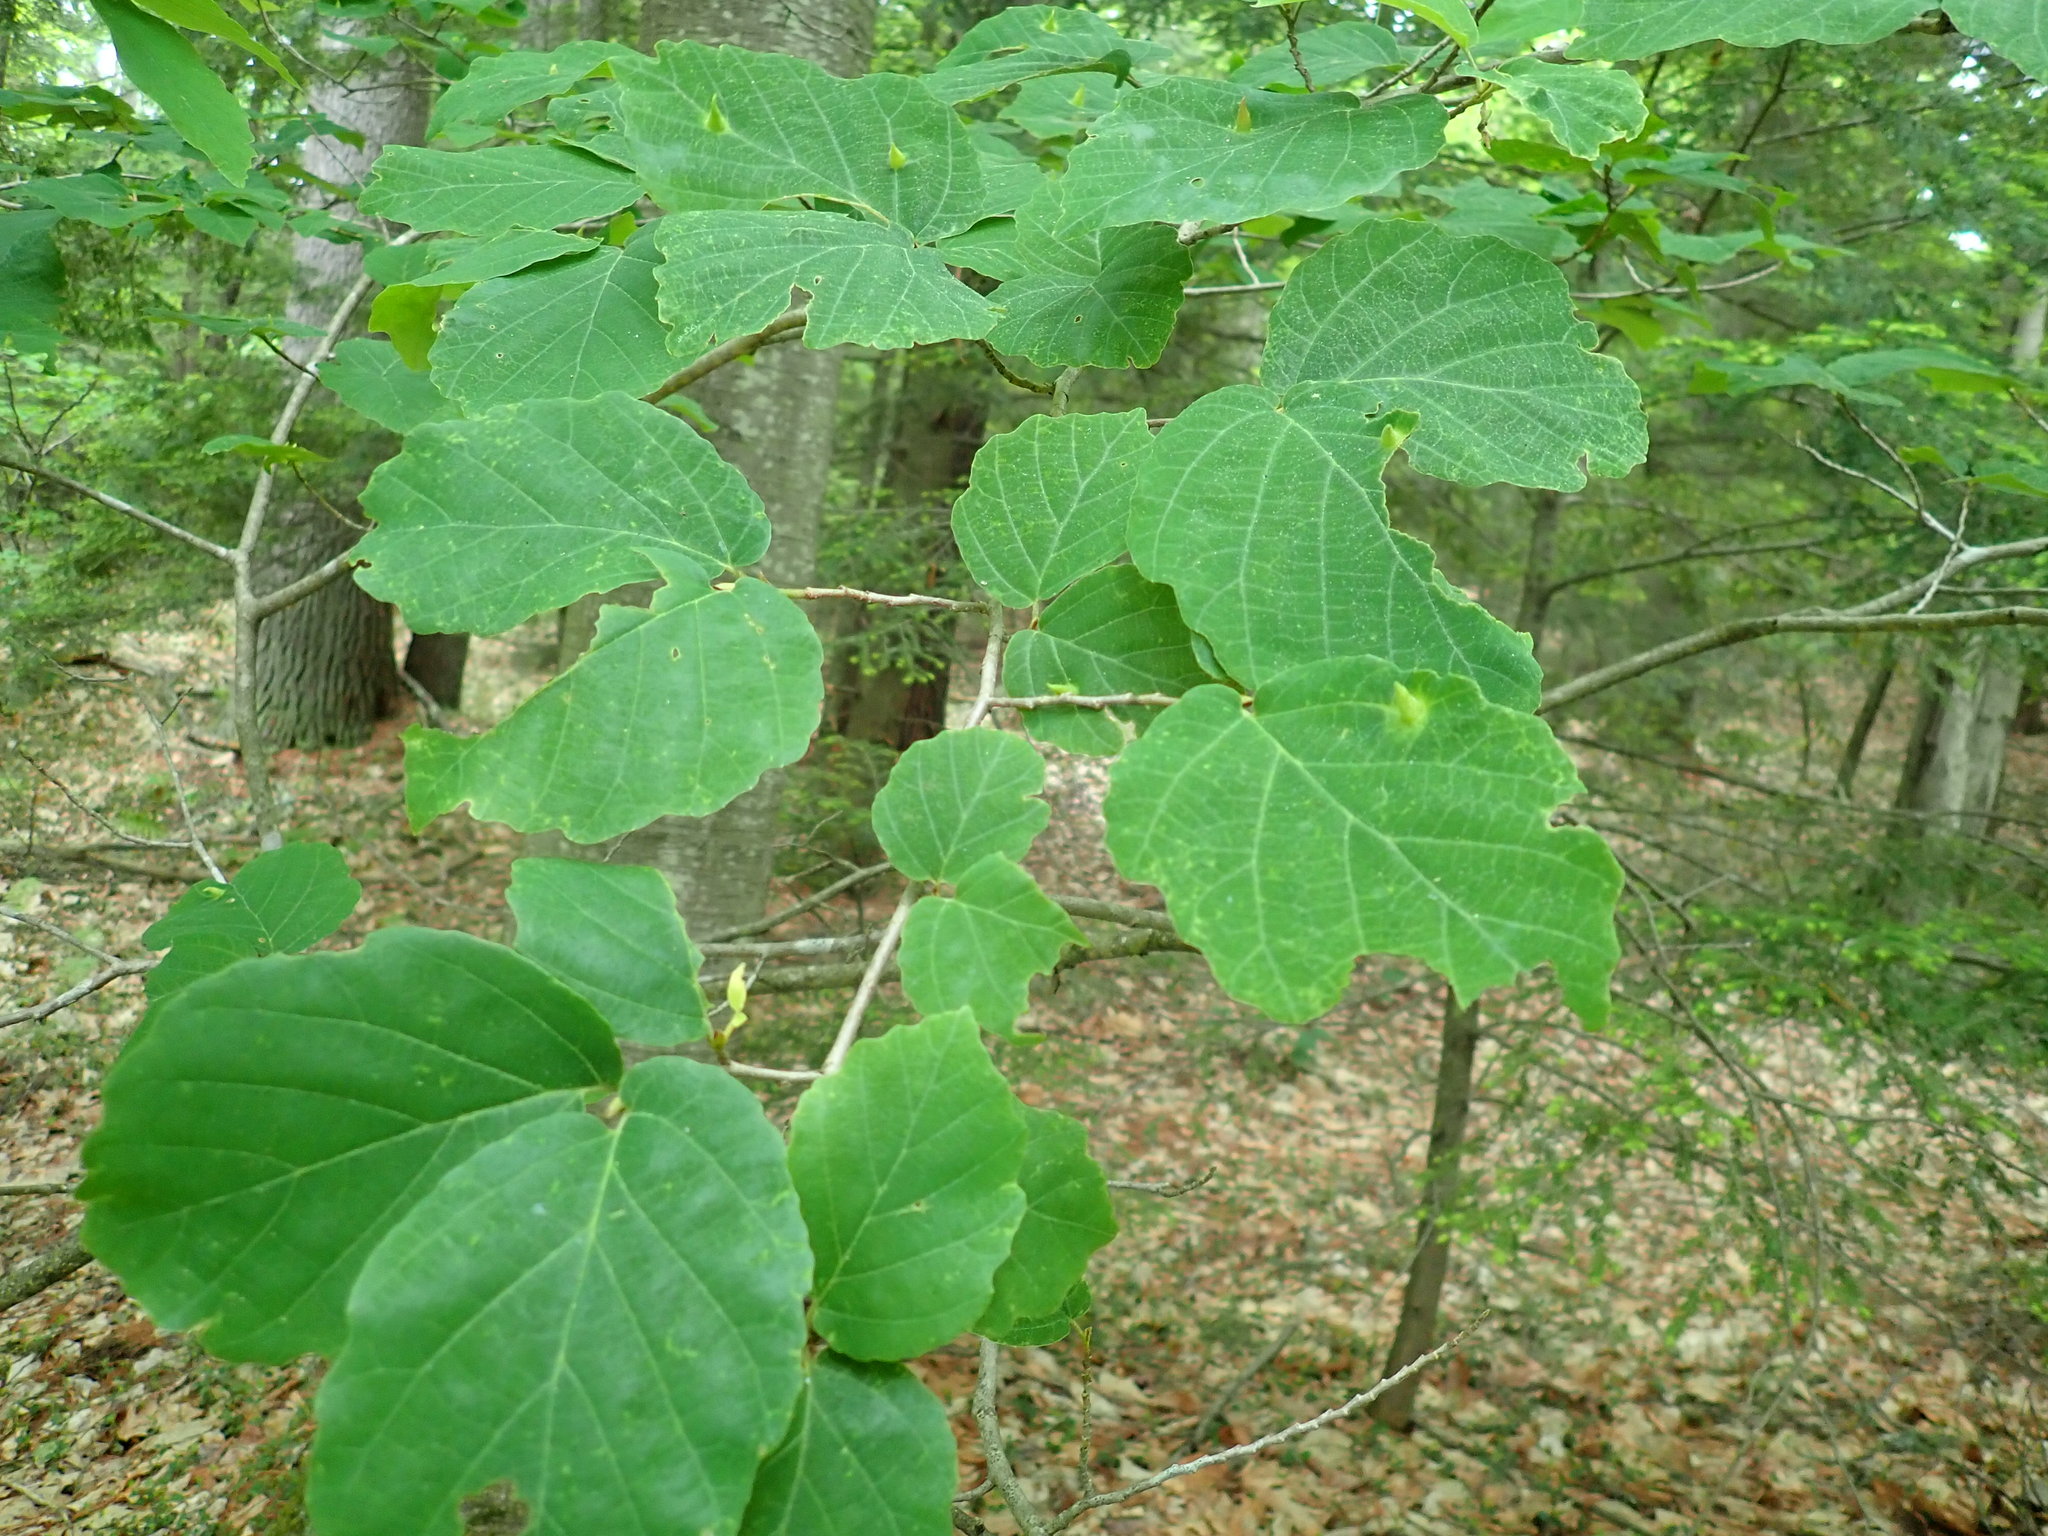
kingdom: Plantae
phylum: Tracheophyta
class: Magnoliopsida
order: Saxifragales
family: Hamamelidaceae
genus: Hamamelis
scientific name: Hamamelis virginiana
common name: Witch-hazel
